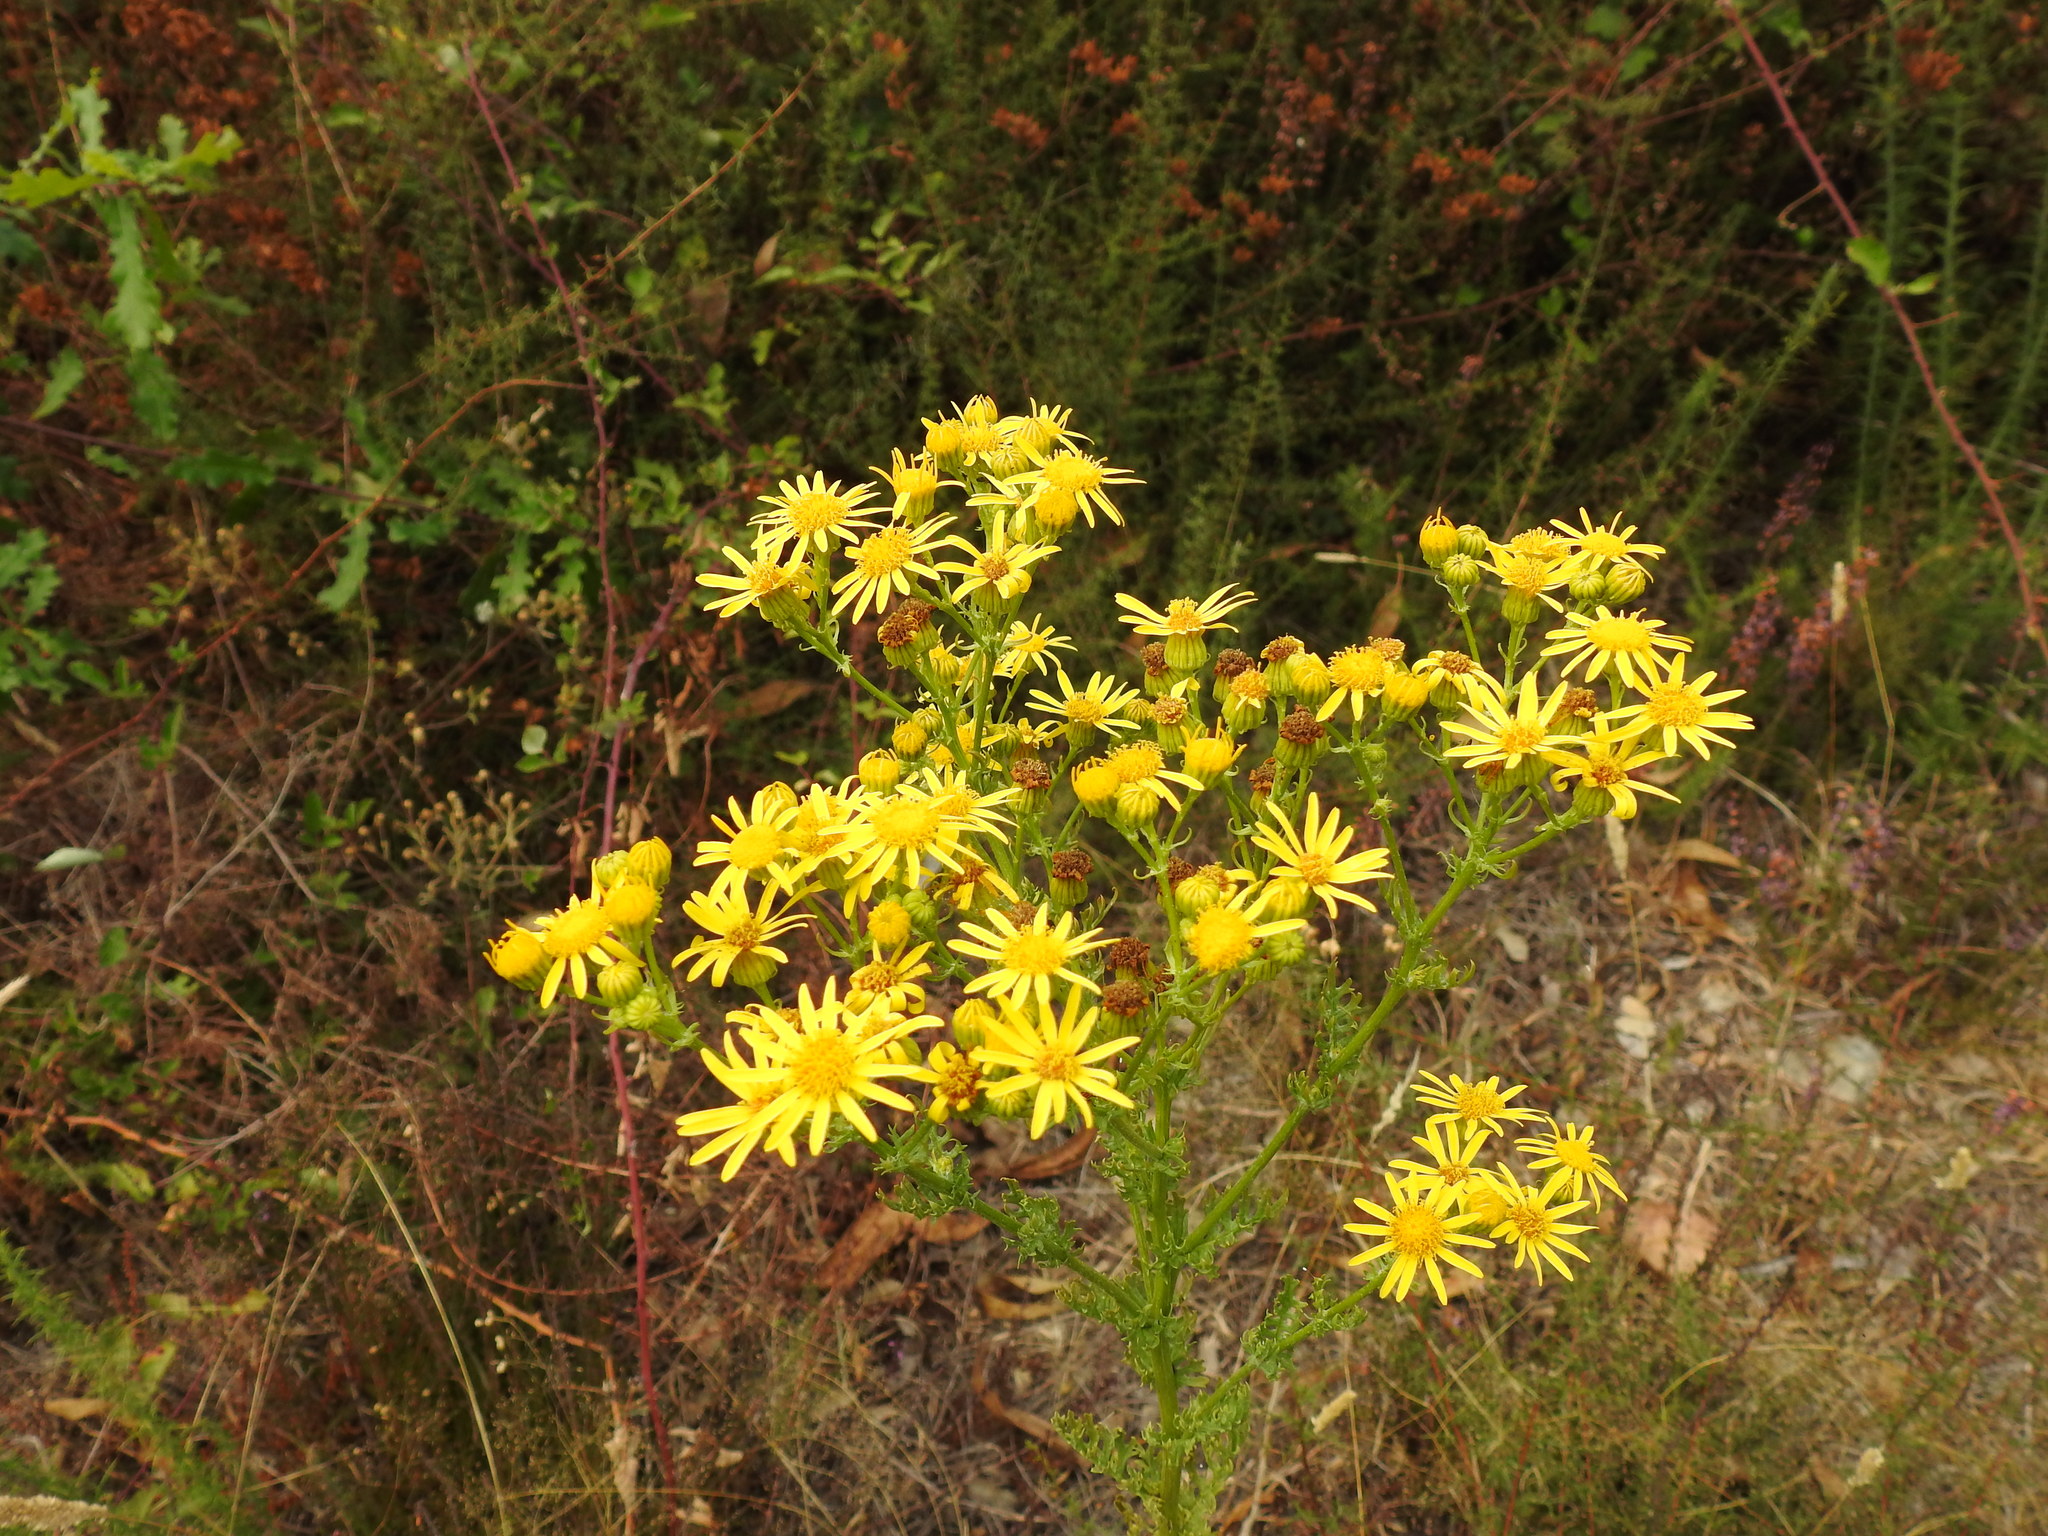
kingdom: Plantae
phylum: Tracheophyta
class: Magnoliopsida
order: Asterales
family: Asteraceae
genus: Jacobaea
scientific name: Jacobaea vulgaris
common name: Stinking willie
